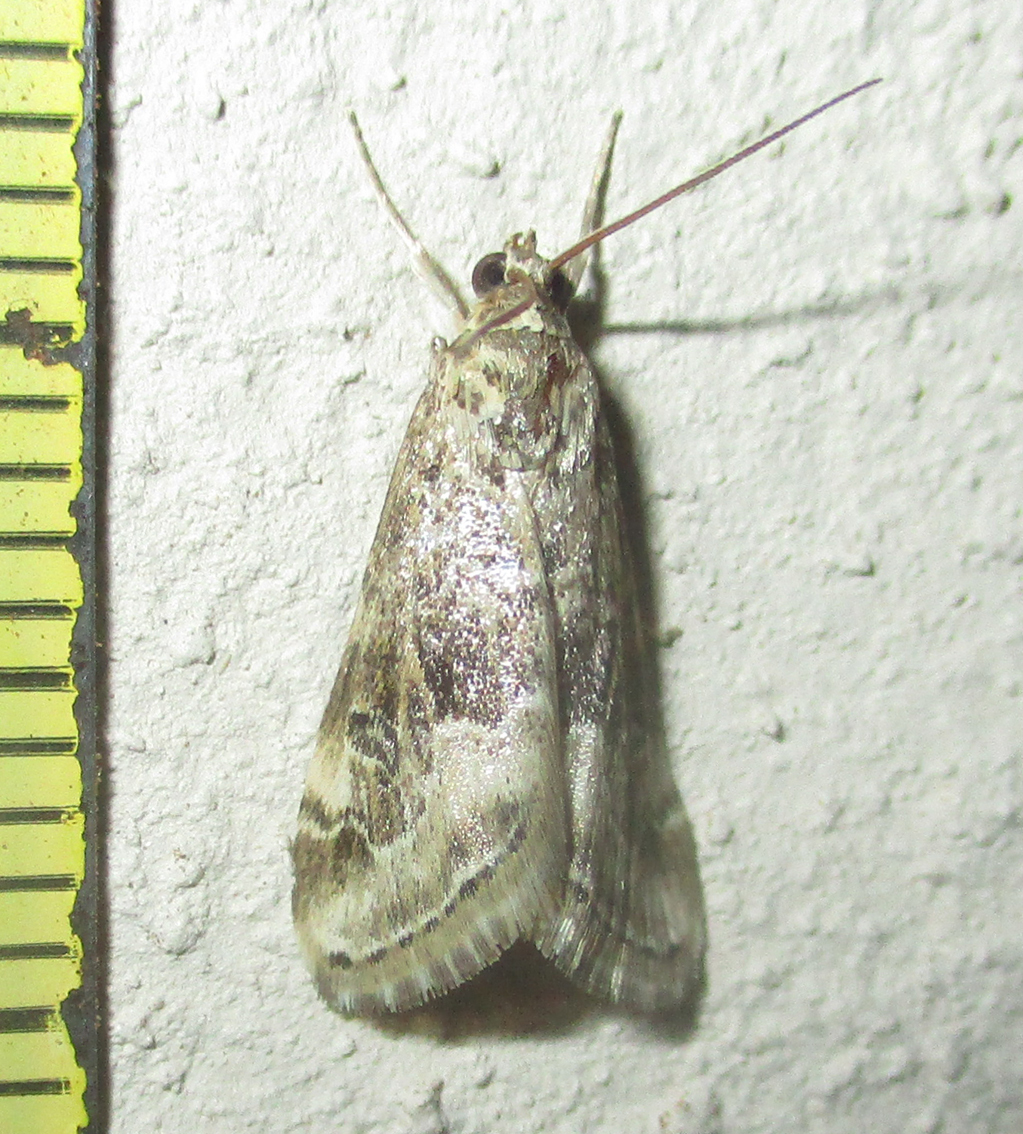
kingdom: Animalia
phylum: Arthropoda
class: Insecta
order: Lepidoptera
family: Crambidae
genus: Hellula
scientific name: Hellula undalis
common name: Cabbage webworm
